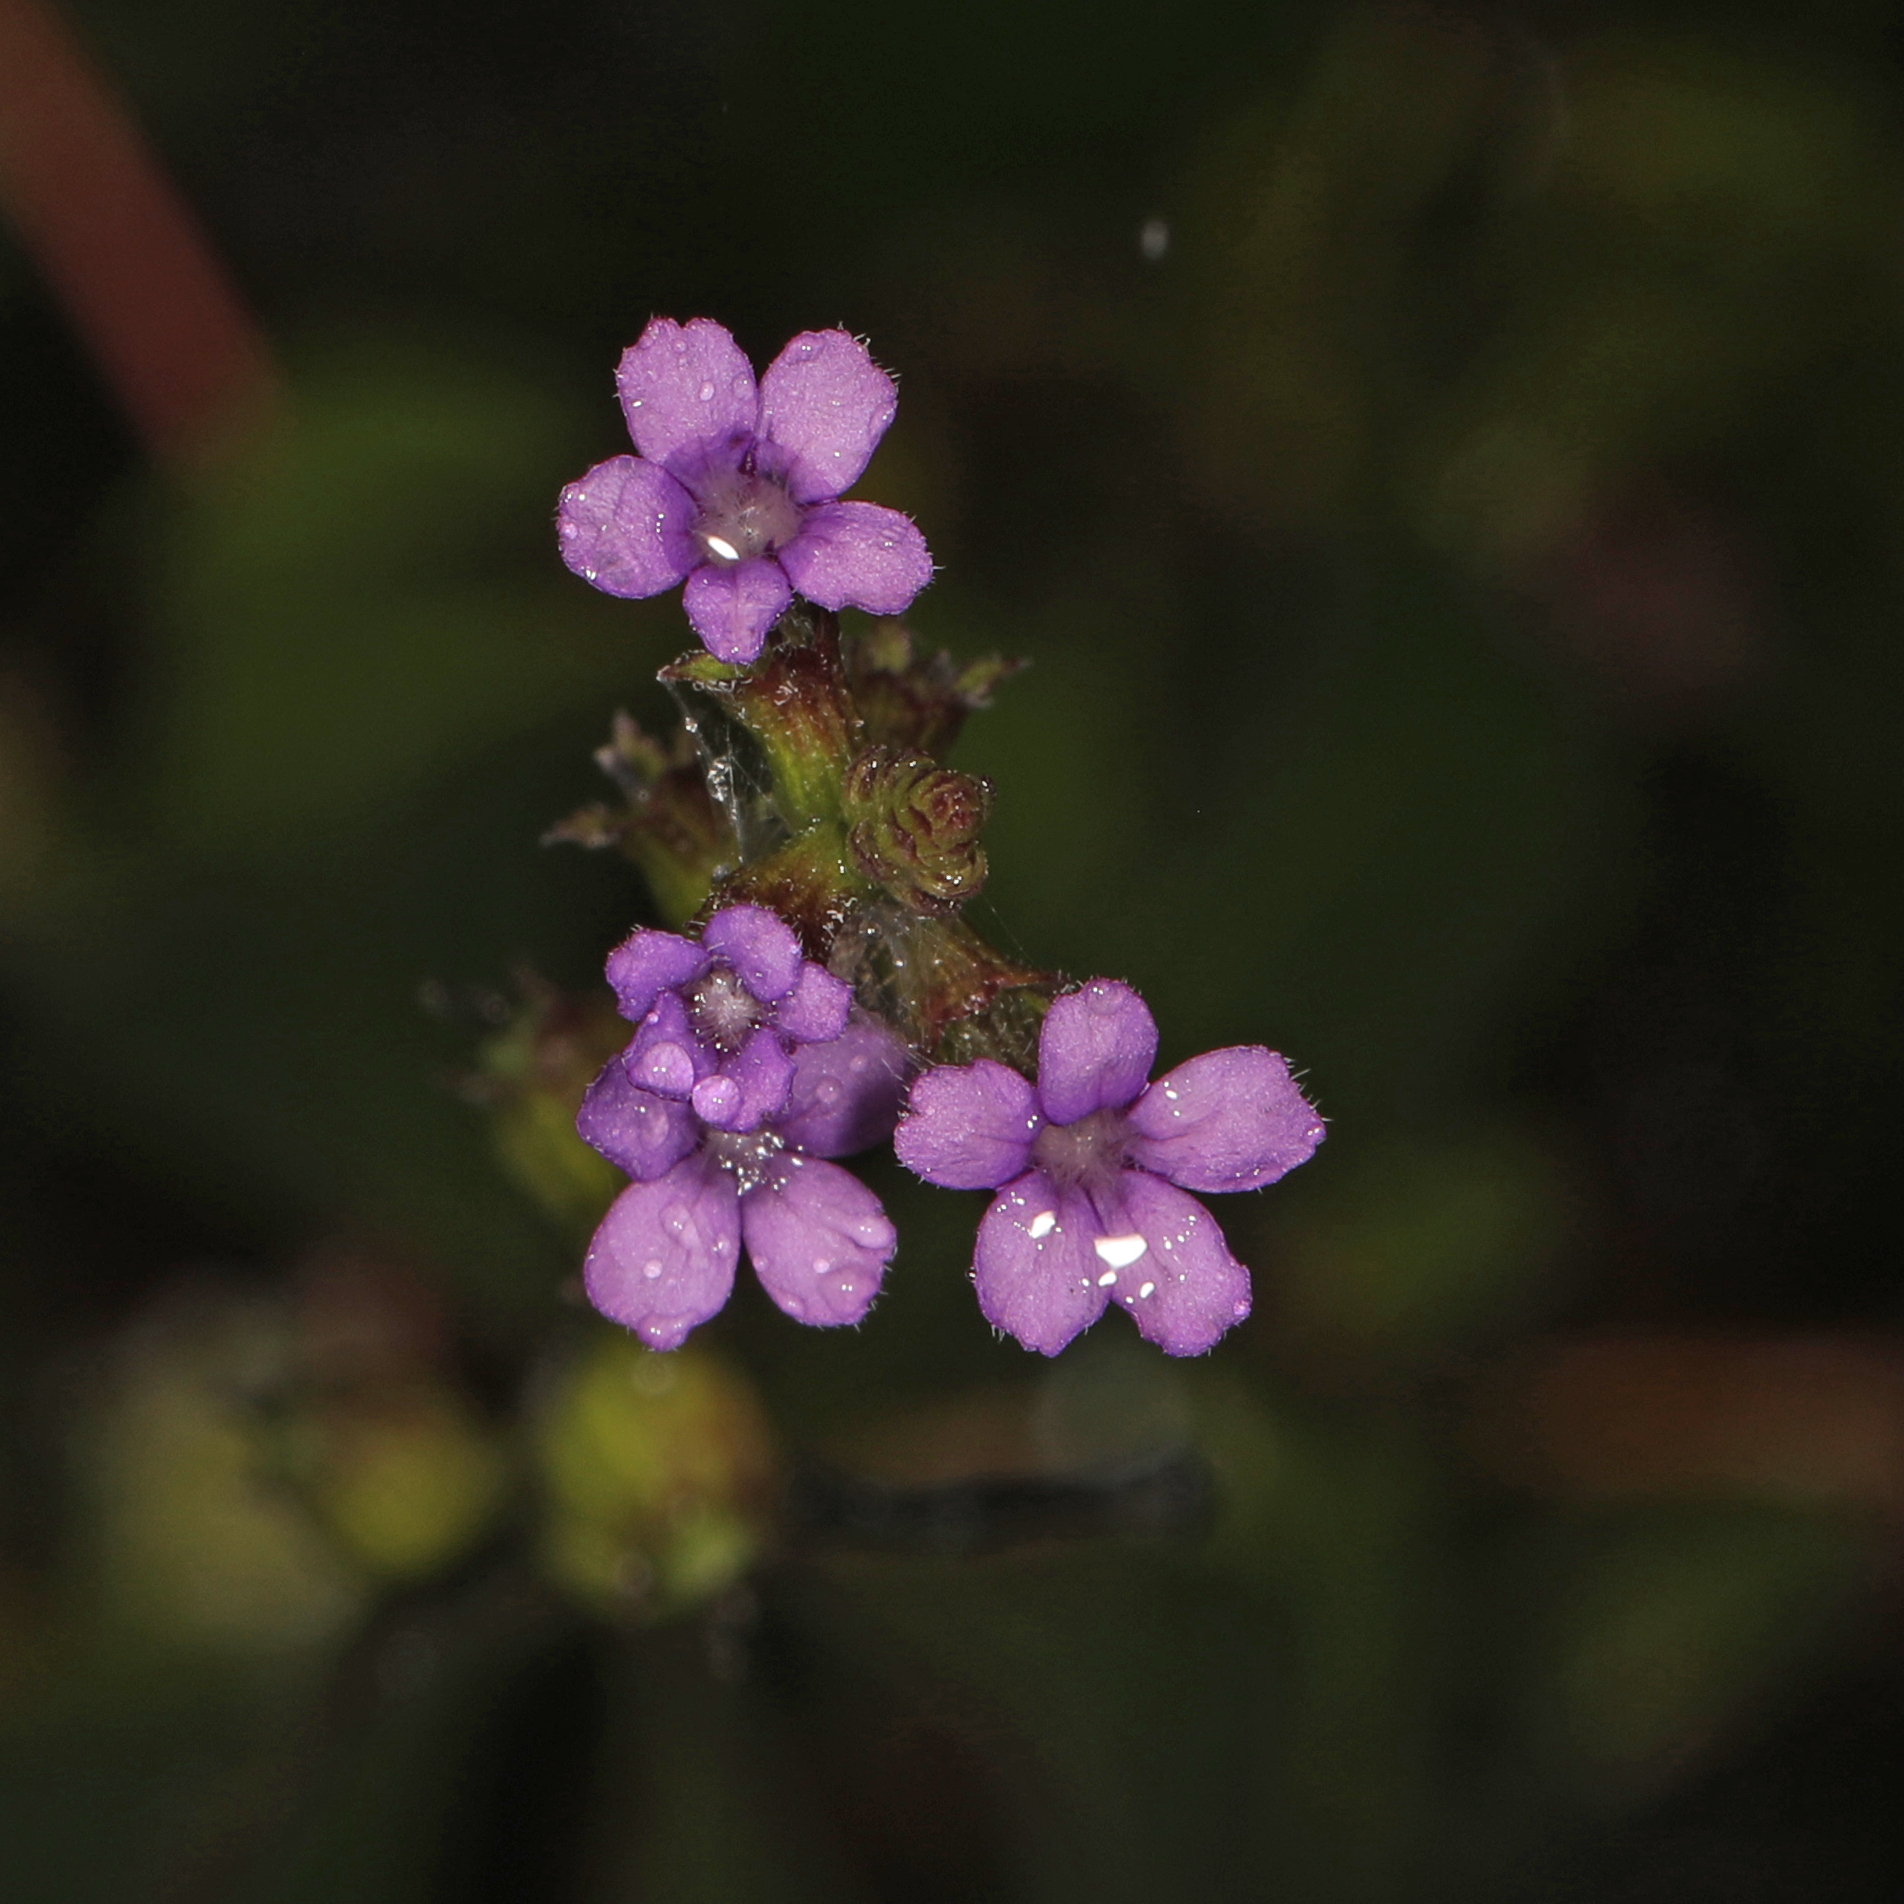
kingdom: Plantae
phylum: Tracheophyta
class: Magnoliopsida
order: Lamiales
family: Orobanchaceae
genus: Buchnera
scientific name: Buchnera floridana
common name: Florida bluehearts
